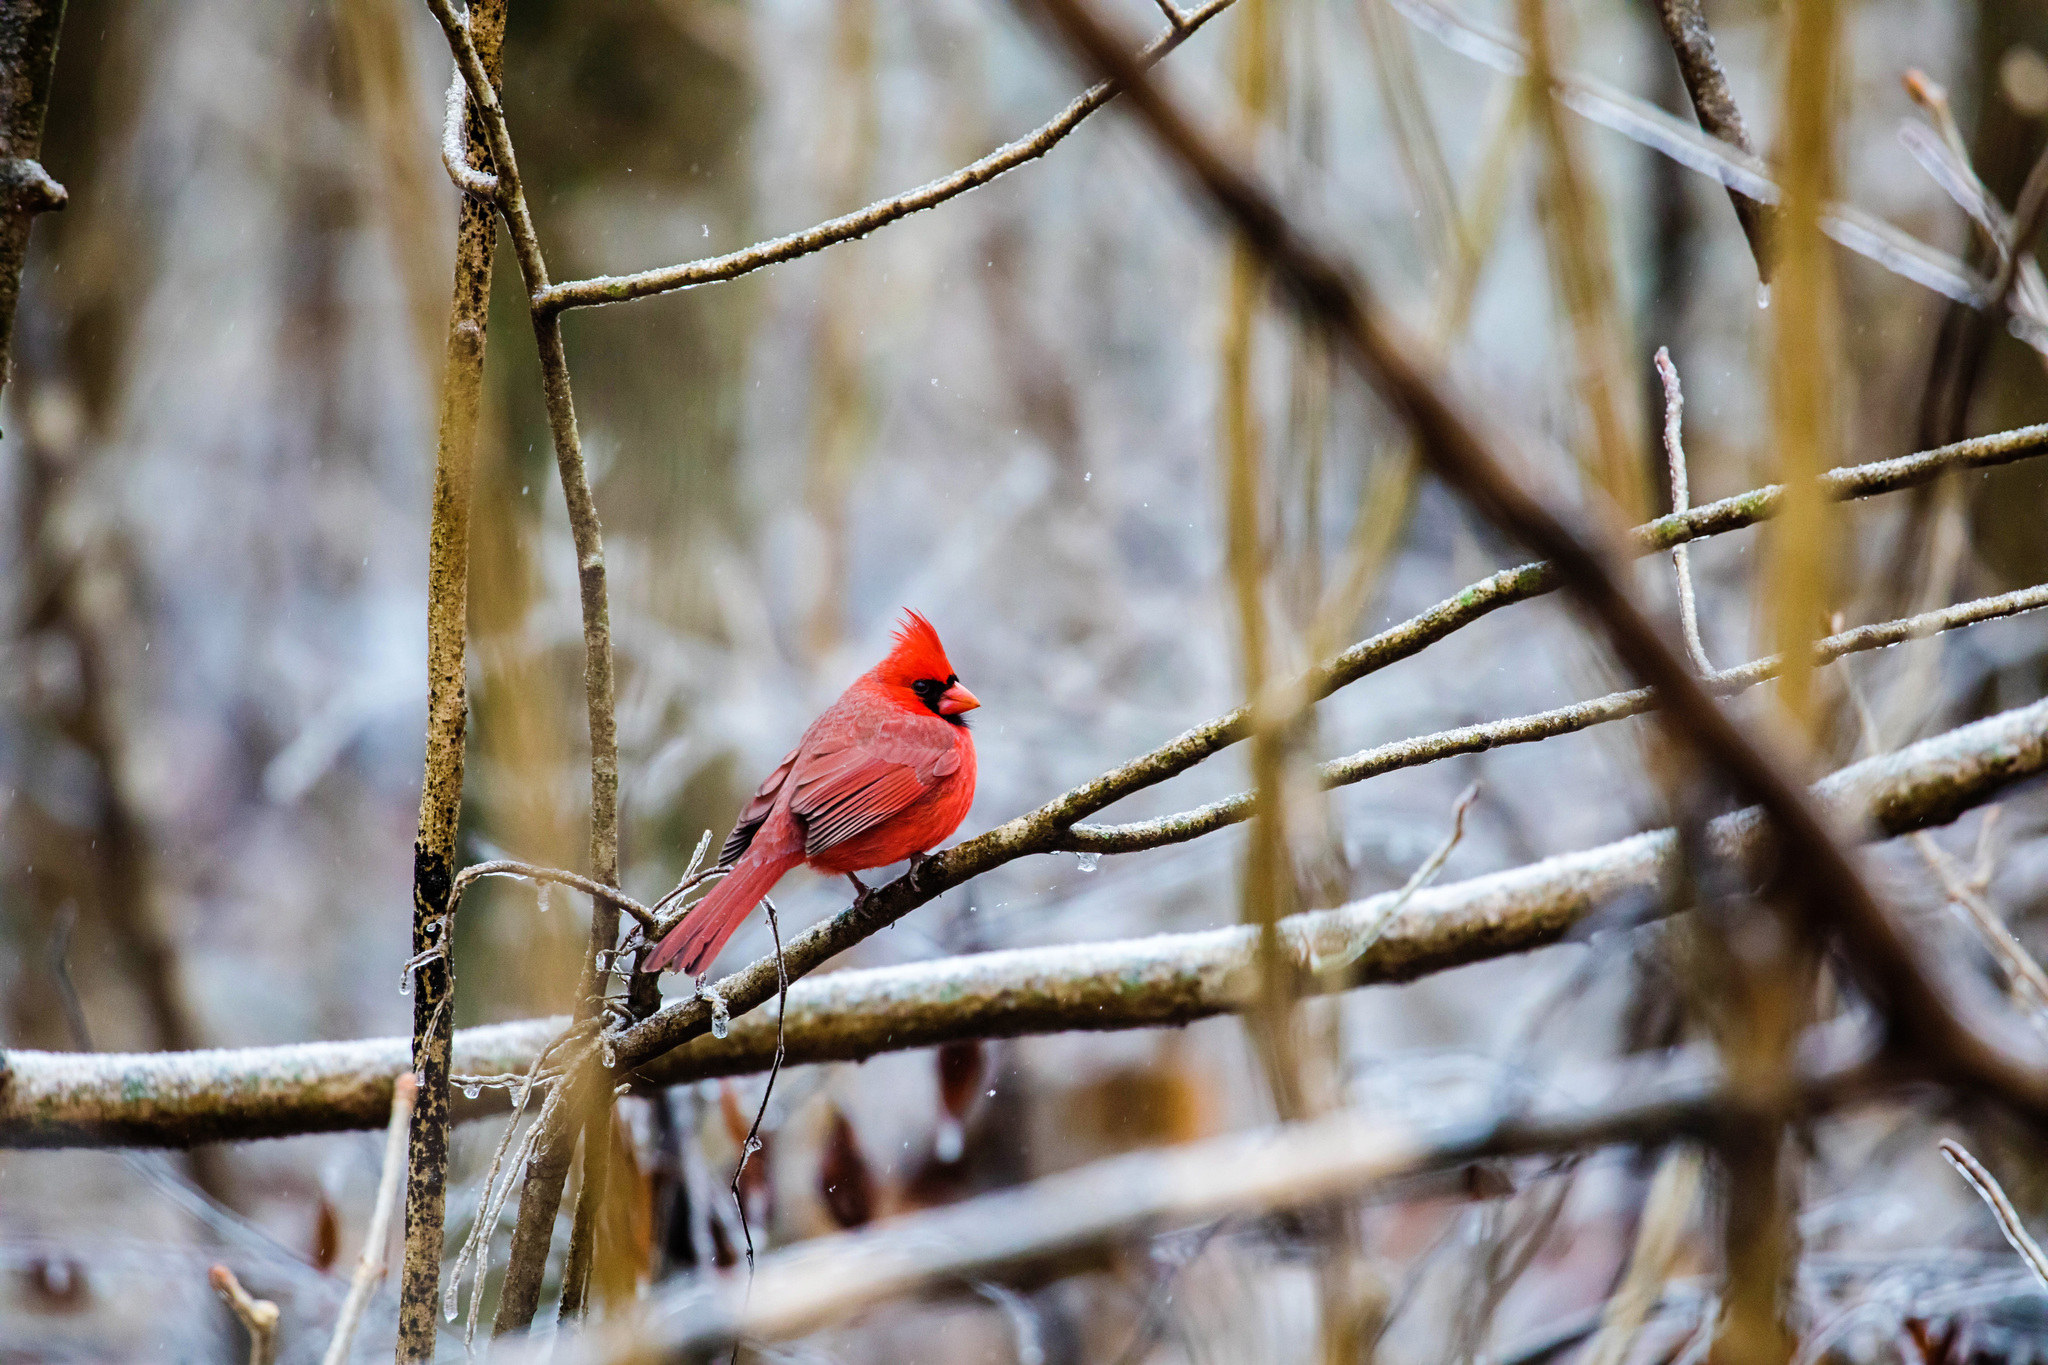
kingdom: Animalia
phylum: Chordata
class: Aves
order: Passeriformes
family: Cardinalidae
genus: Cardinalis
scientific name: Cardinalis cardinalis
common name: Northern cardinal
